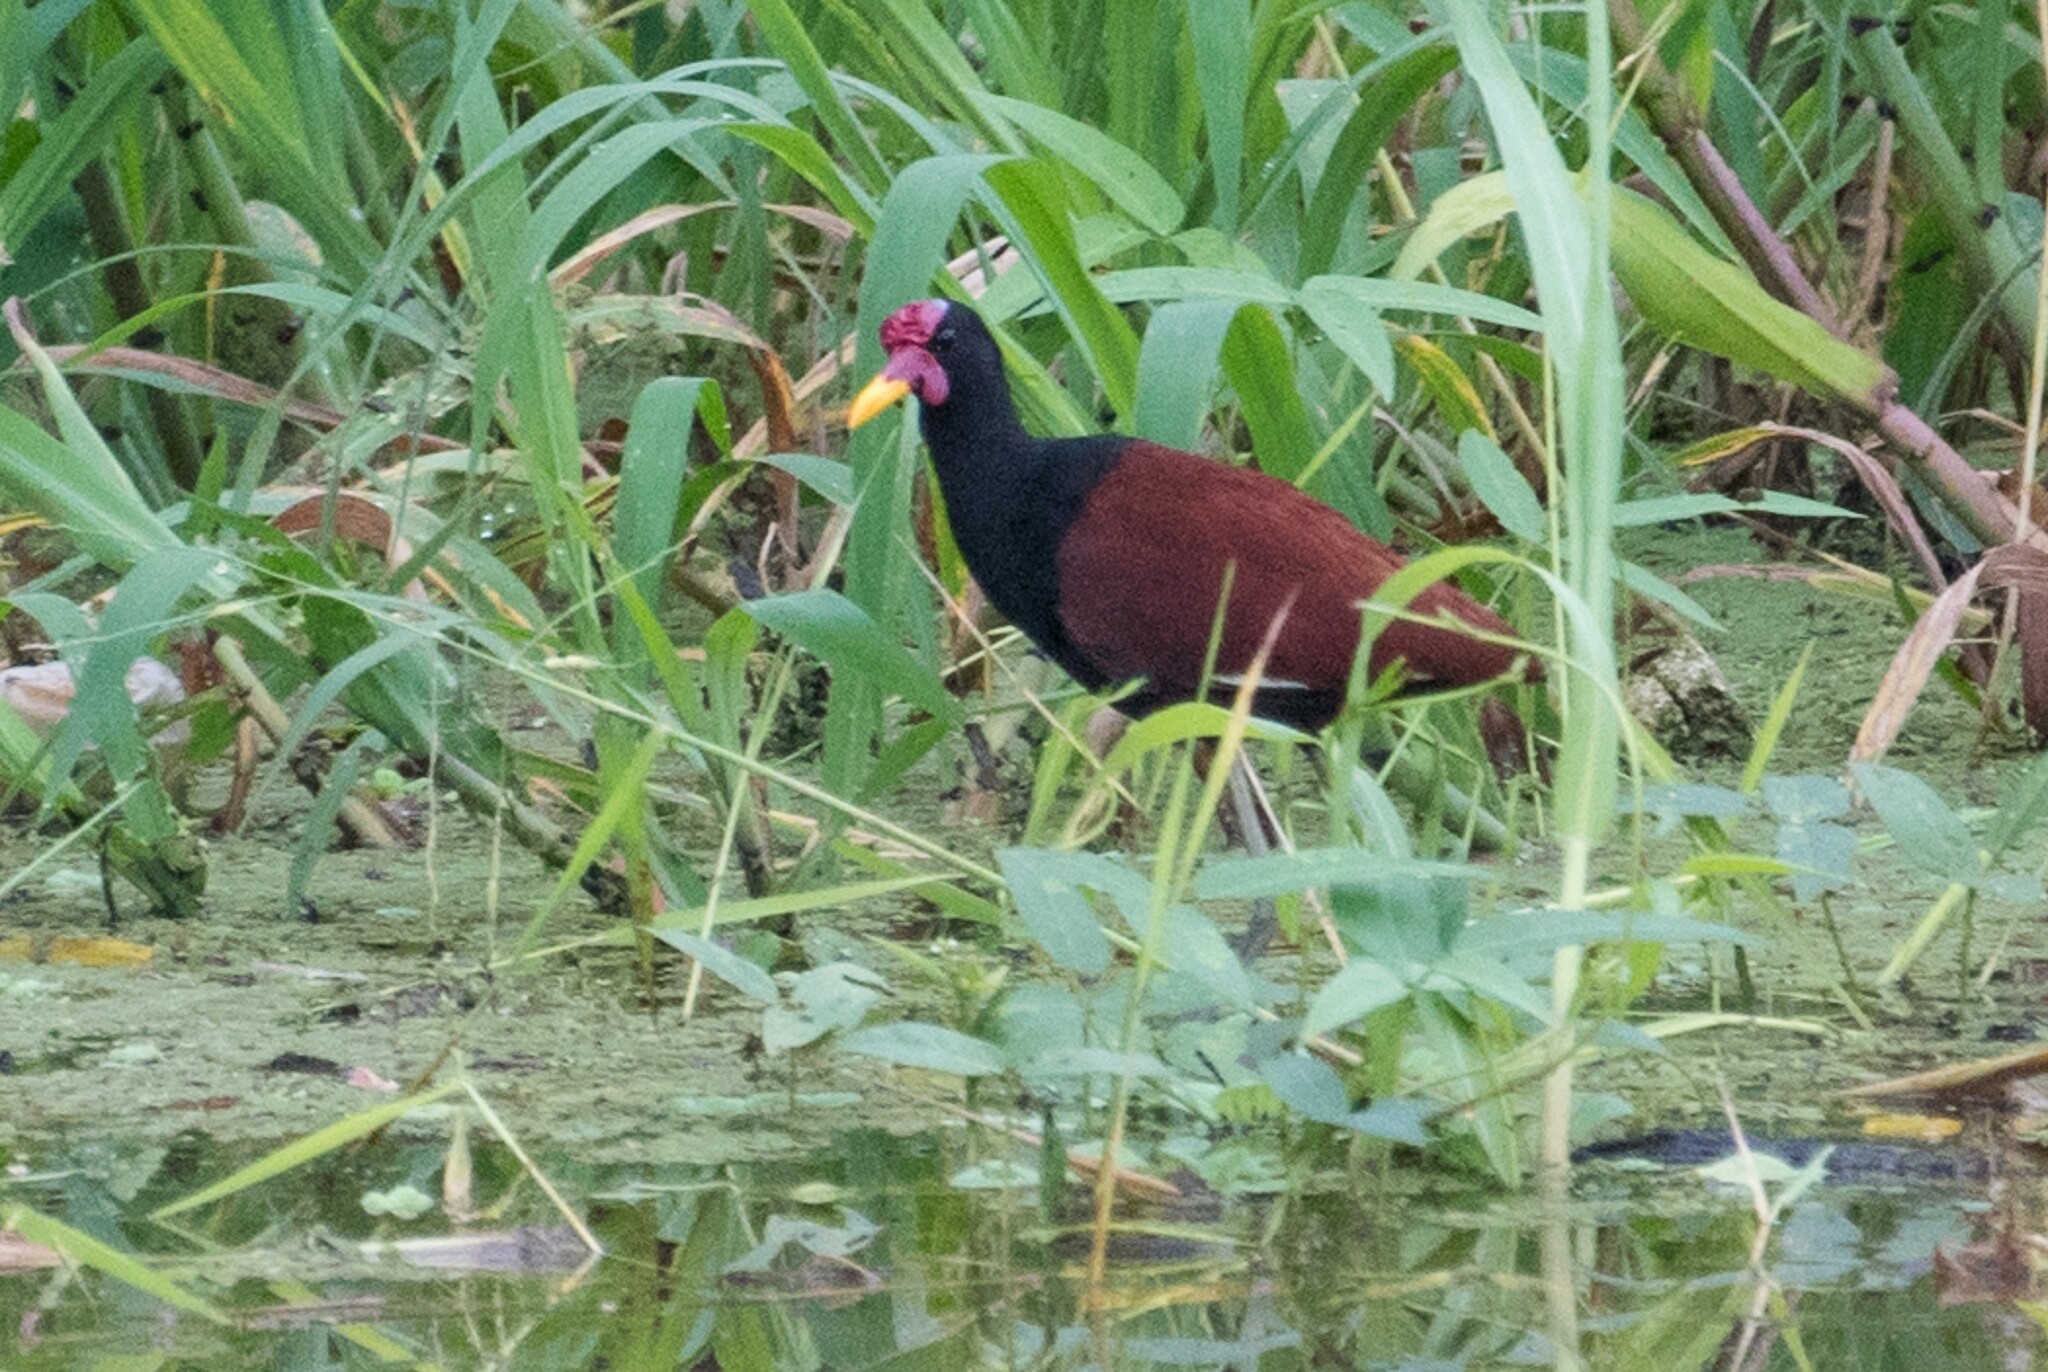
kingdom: Animalia
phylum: Chordata
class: Aves
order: Charadriiformes
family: Jacanidae
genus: Jacana
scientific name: Jacana jacana
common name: Wattled jacana
